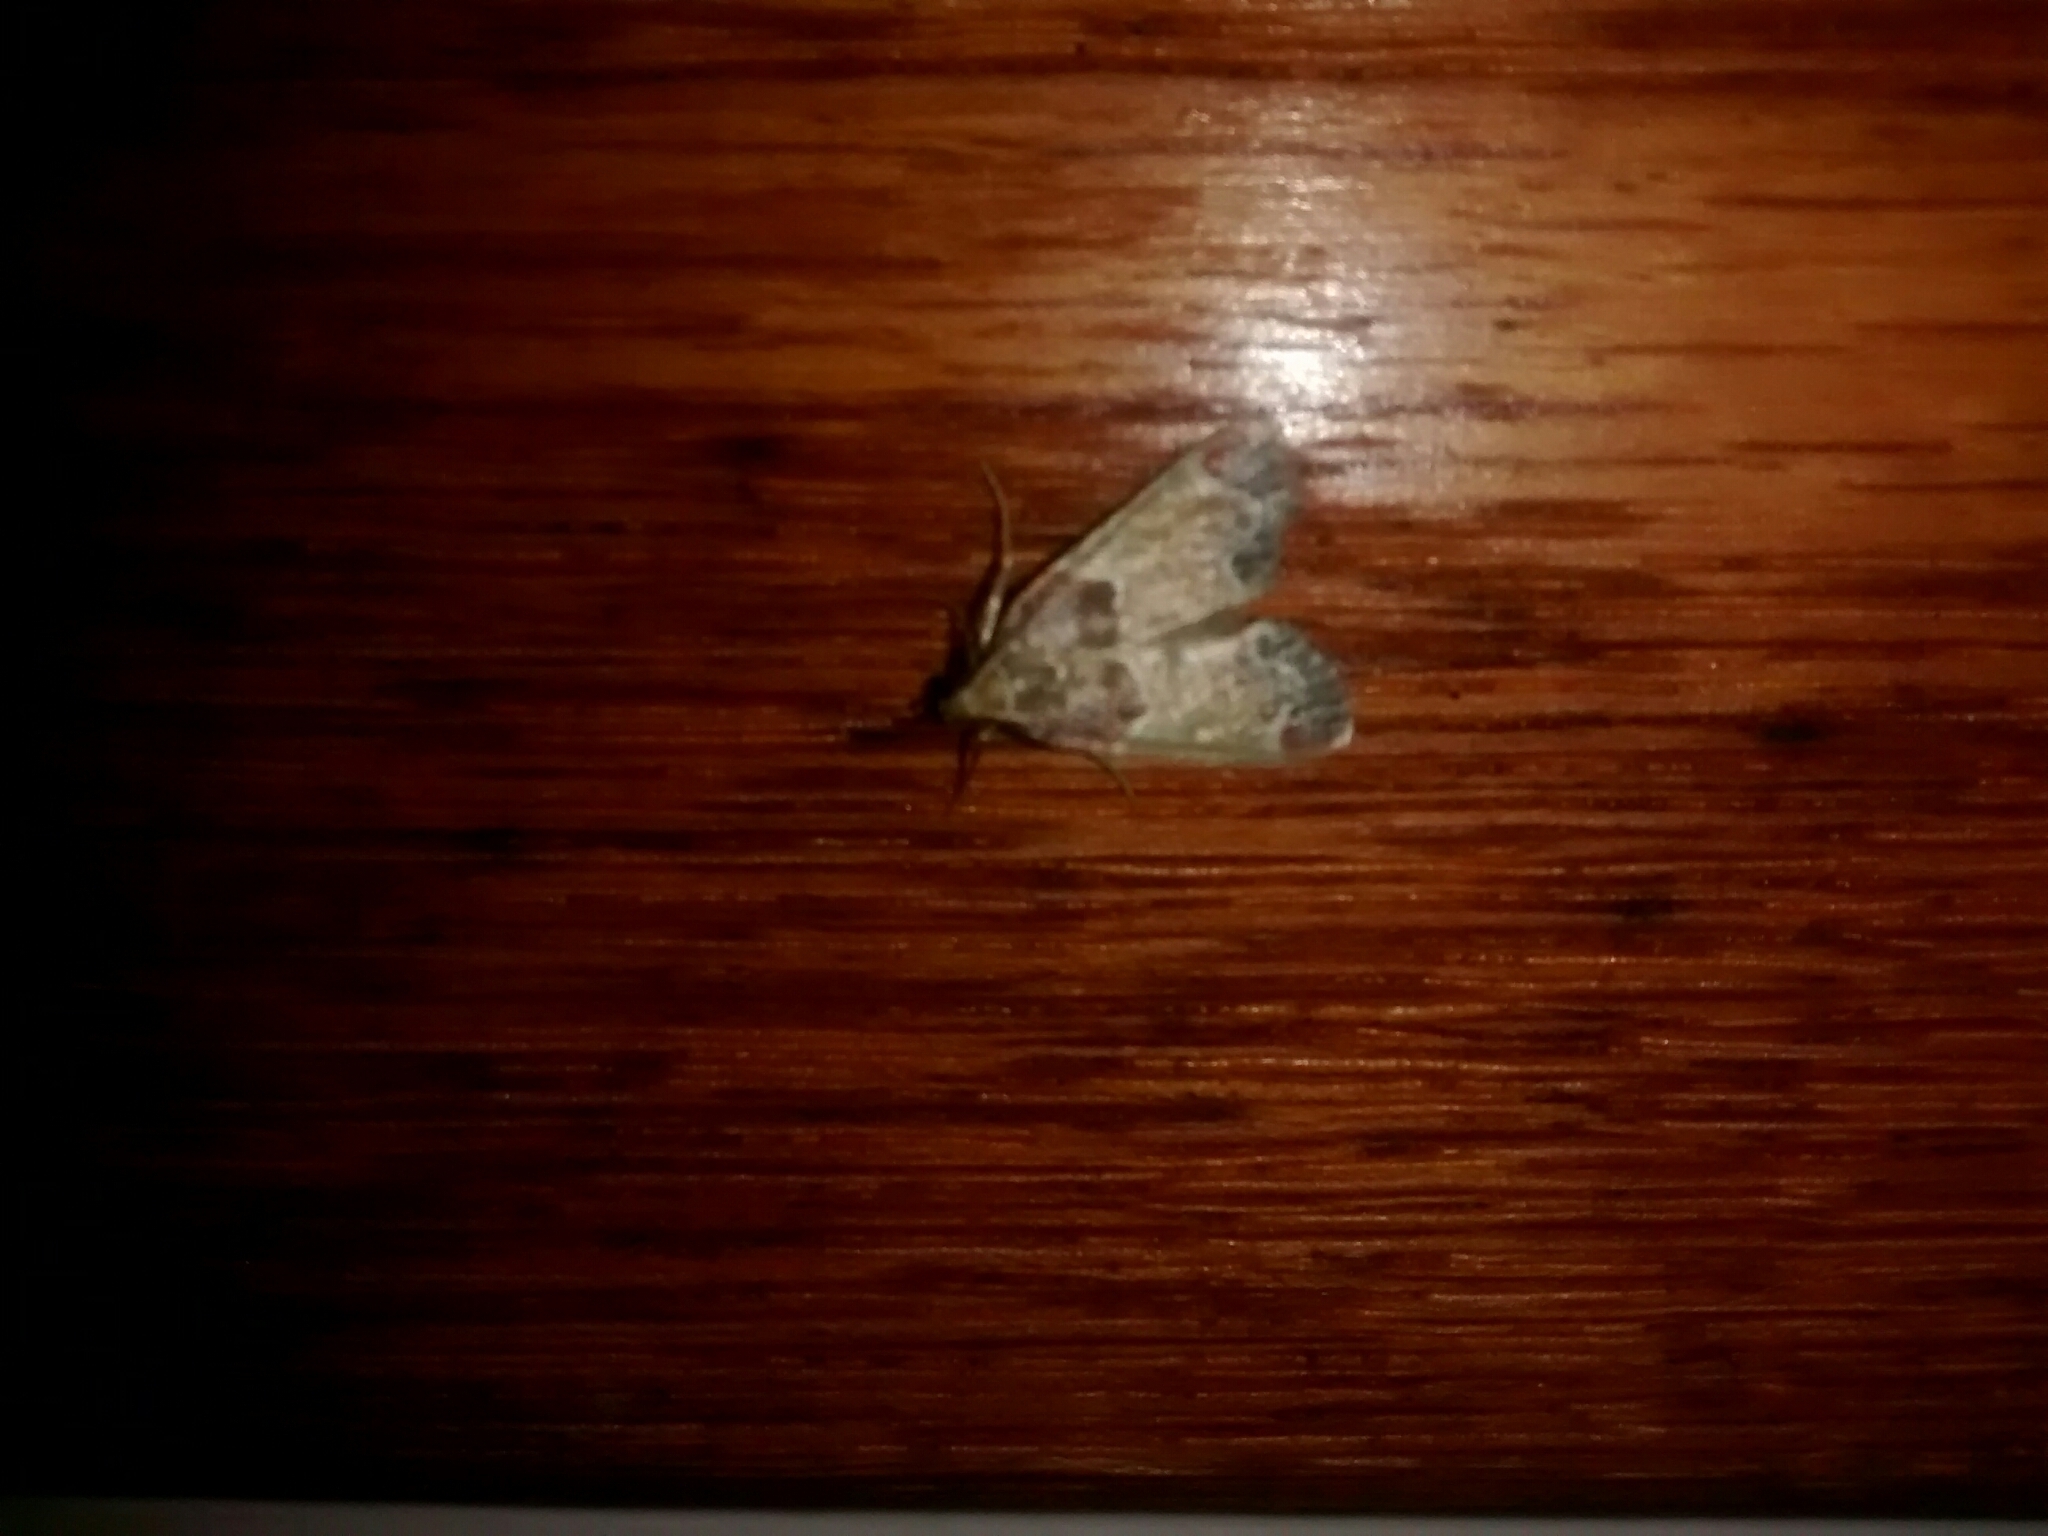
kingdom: Animalia
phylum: Arthropoda
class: Insecta
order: Lepidoptera
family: Pyralidae
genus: Pyralis
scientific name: Pyralis farinalis
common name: Meal moth
